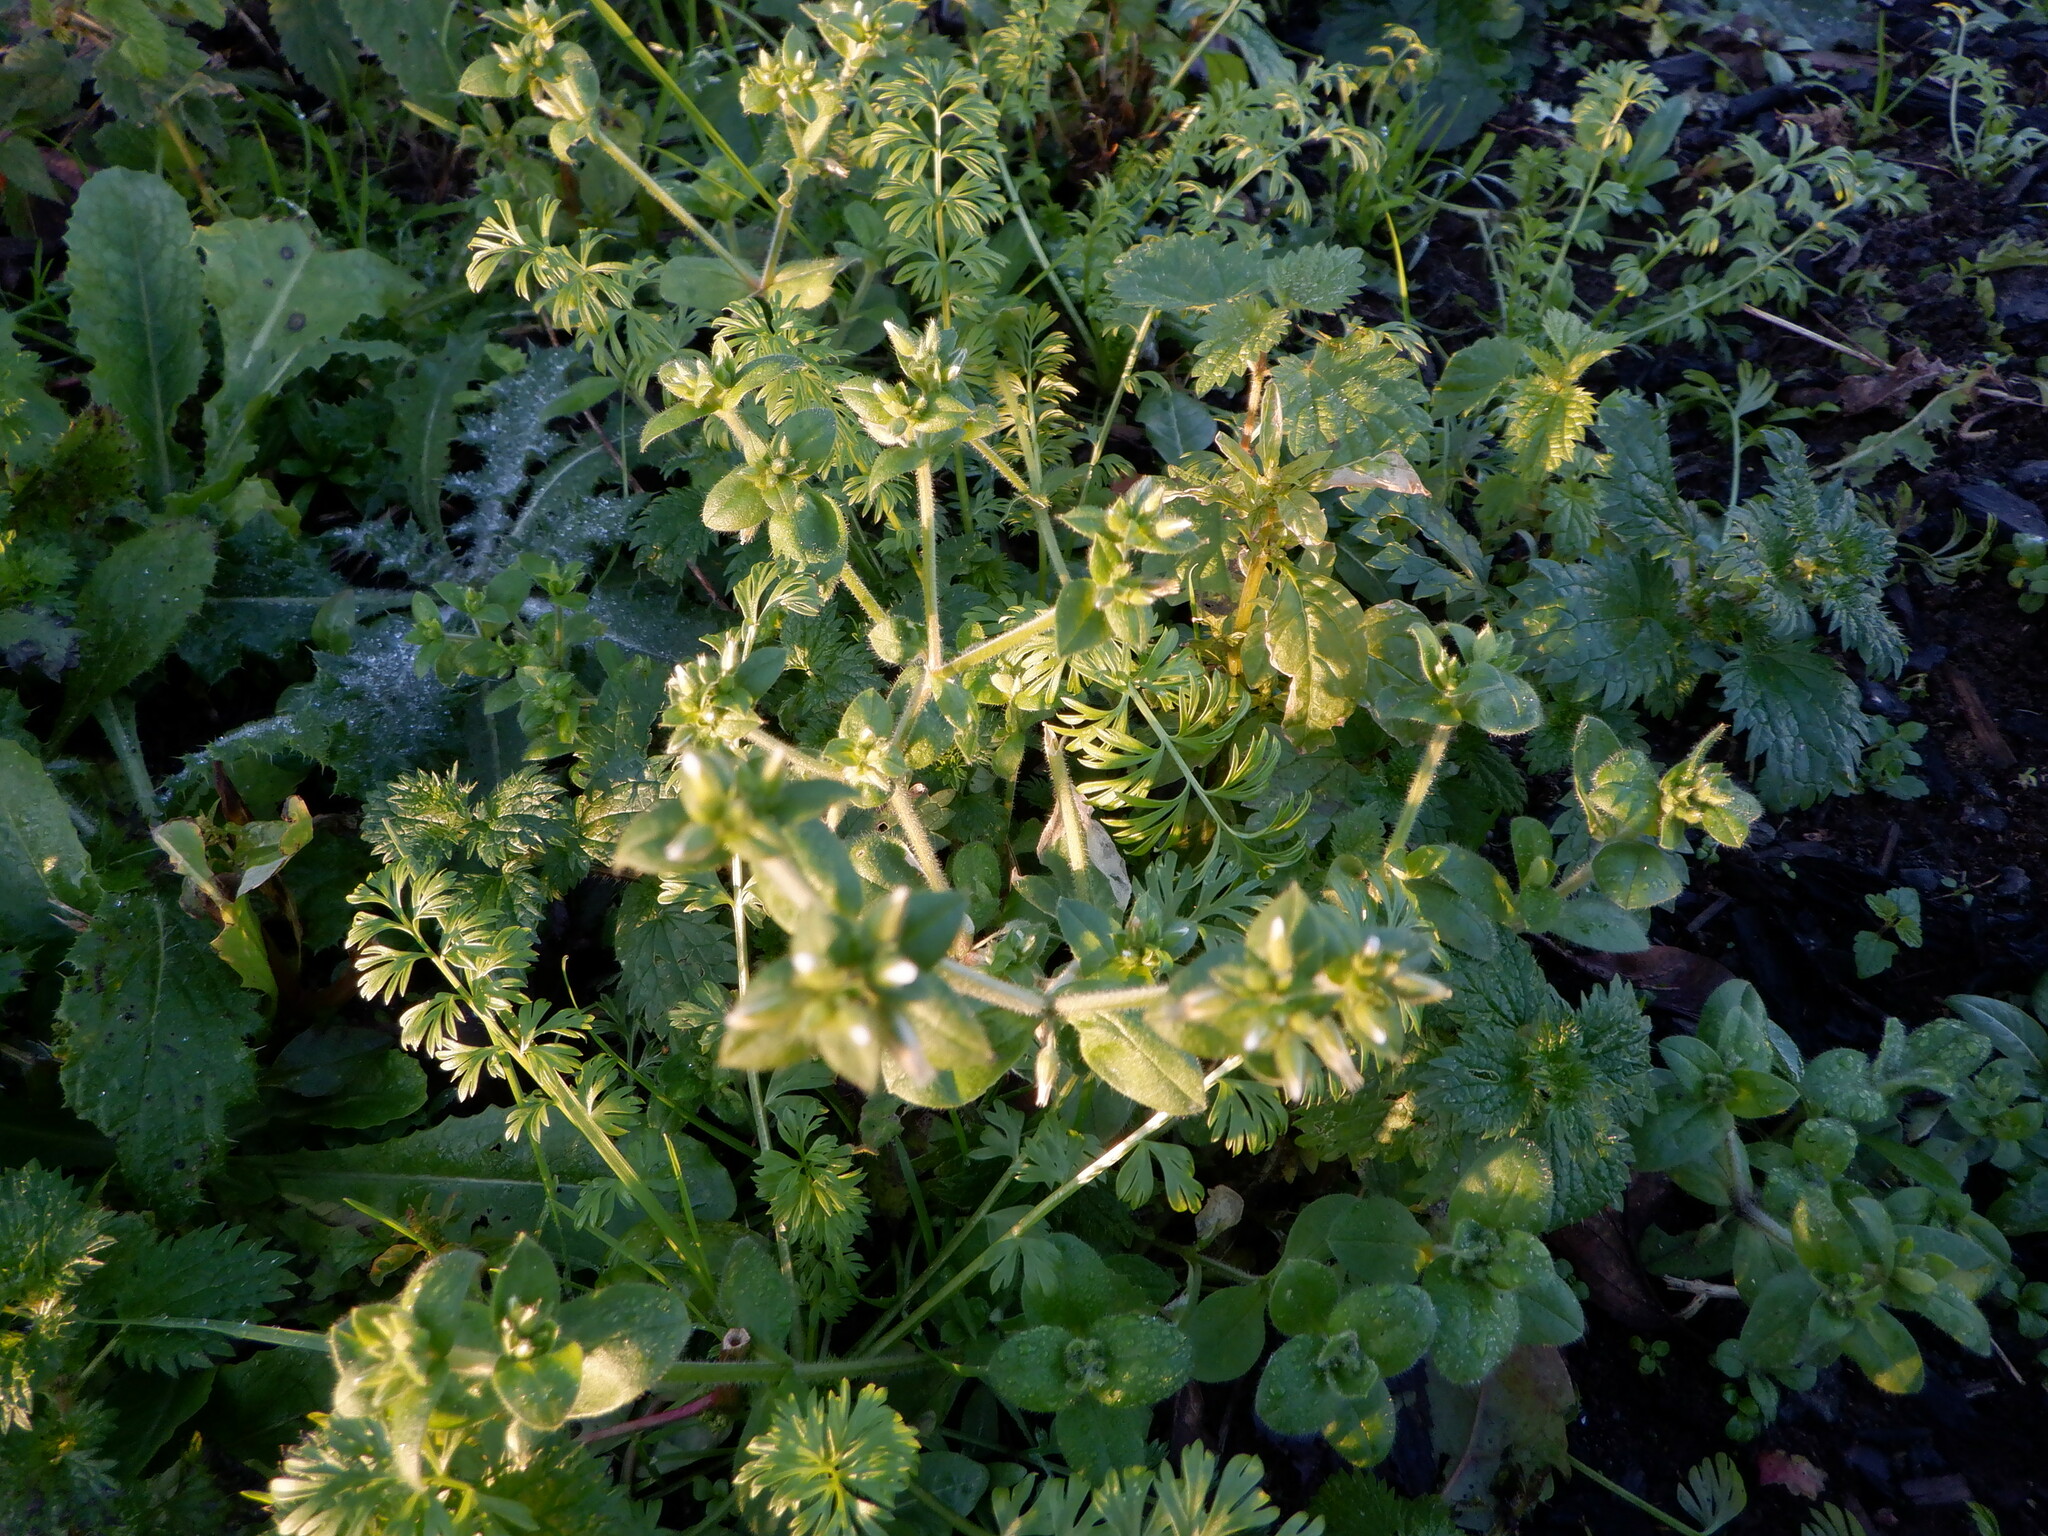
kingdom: Plantae
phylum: Tracheophyta
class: Magnoliopsida
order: Caryophyllales
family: Caryophyllaceae
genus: Cerastium
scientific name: Cerastium glomeratum
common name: Sticky chickweed
